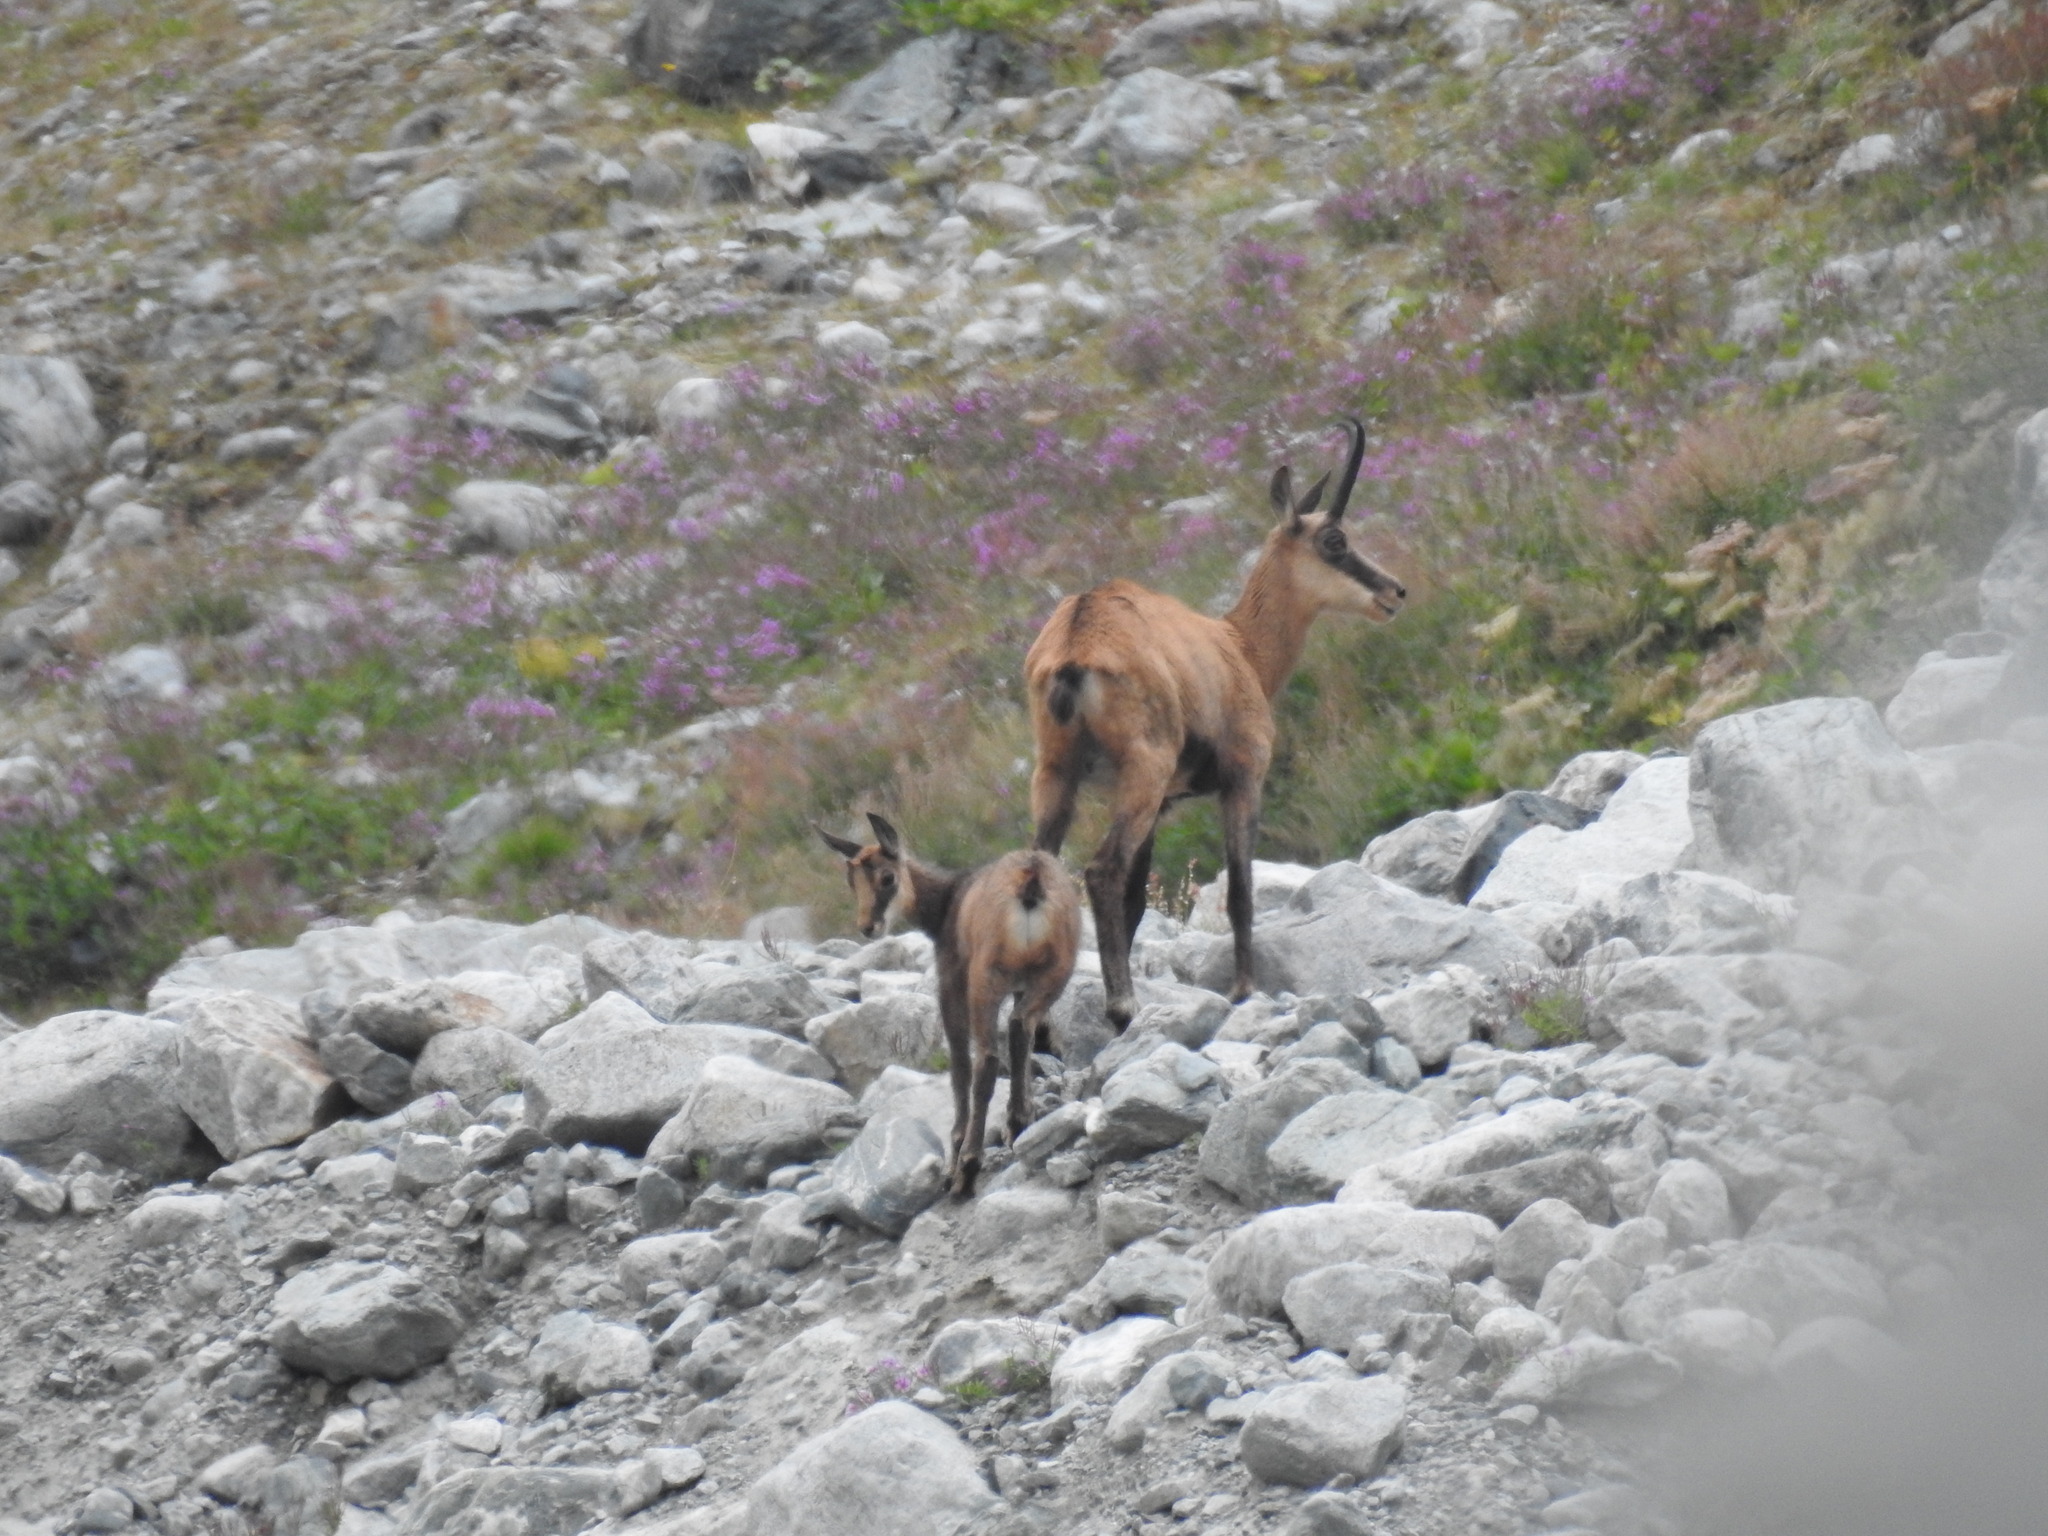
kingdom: Animalia
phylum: Chordata
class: Mammalia
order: Artiodactyla
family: Bovidae
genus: Rupicapra
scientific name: Rupicapra rupicapra
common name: Chamois
